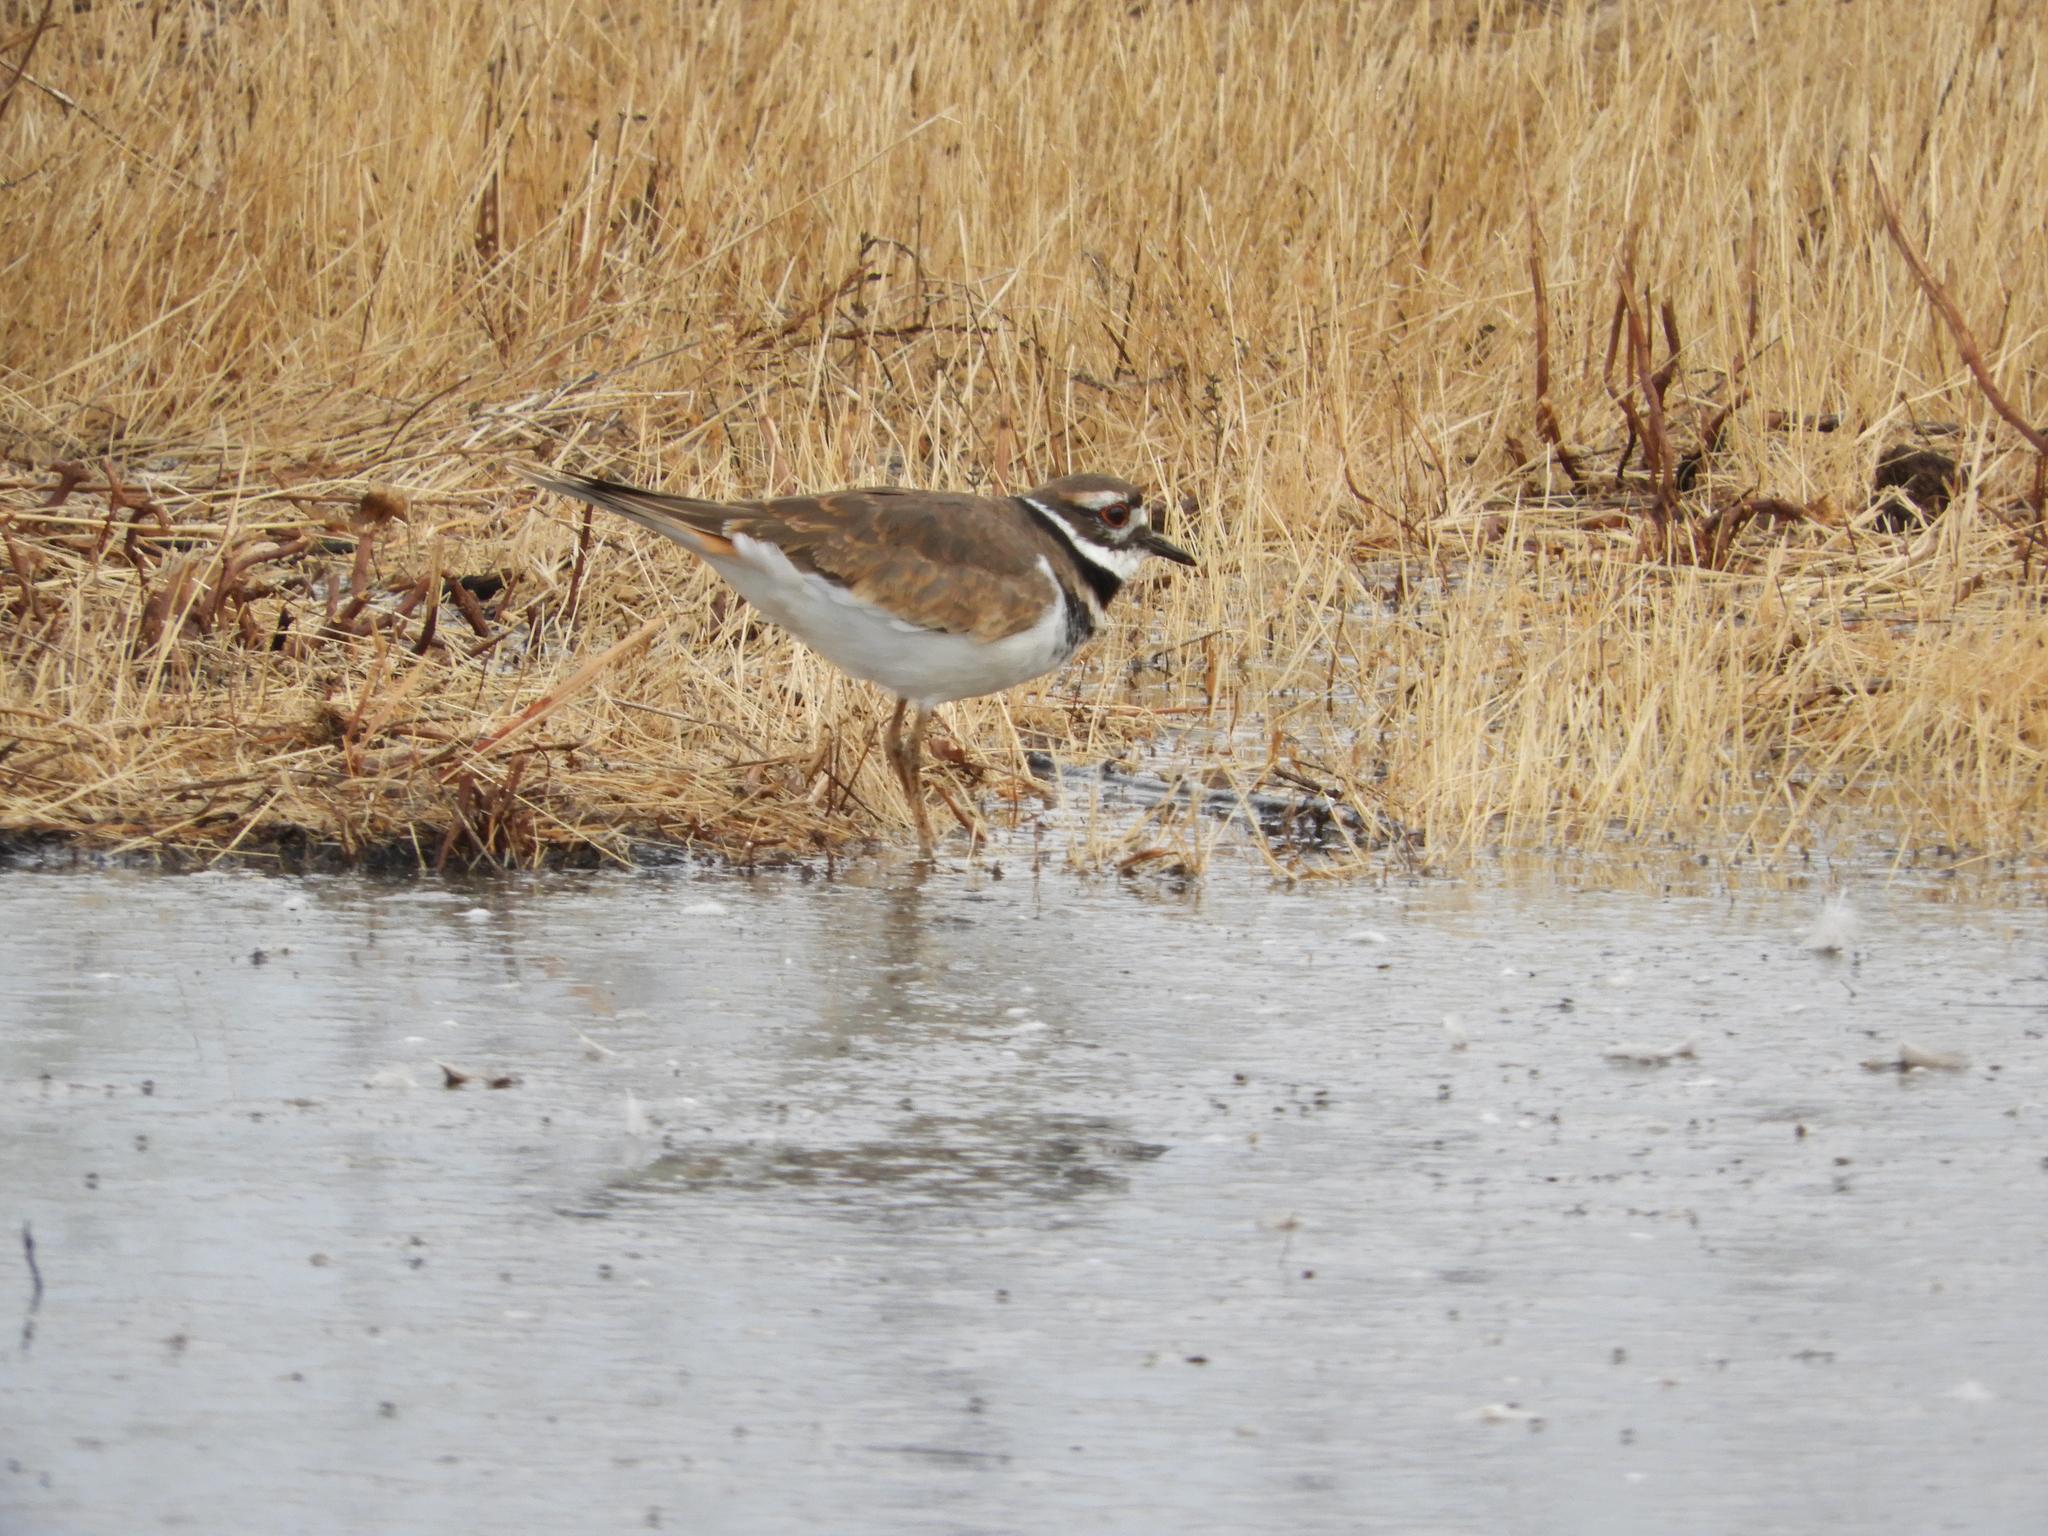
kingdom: Animalia
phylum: Chordata
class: Aves
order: Charadriiformes
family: Charadriidae
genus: Charadrius
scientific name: Charadrius vociferus
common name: Killdeer
